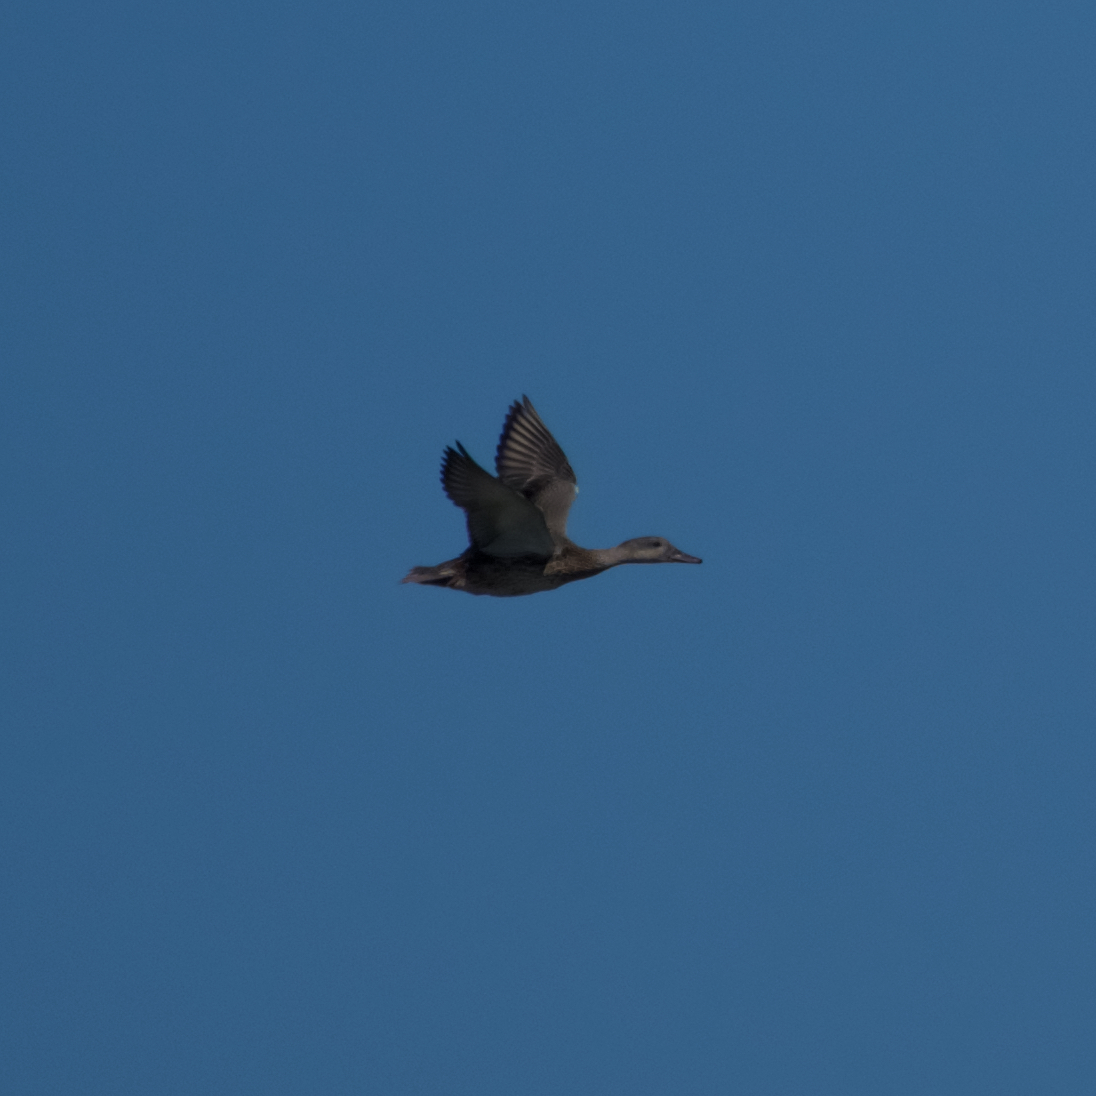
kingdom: Animalia
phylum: Chordata
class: Aves
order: Anseriformes
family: Anatidae
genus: Mareca
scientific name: Mareca strepera
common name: Gadwall
